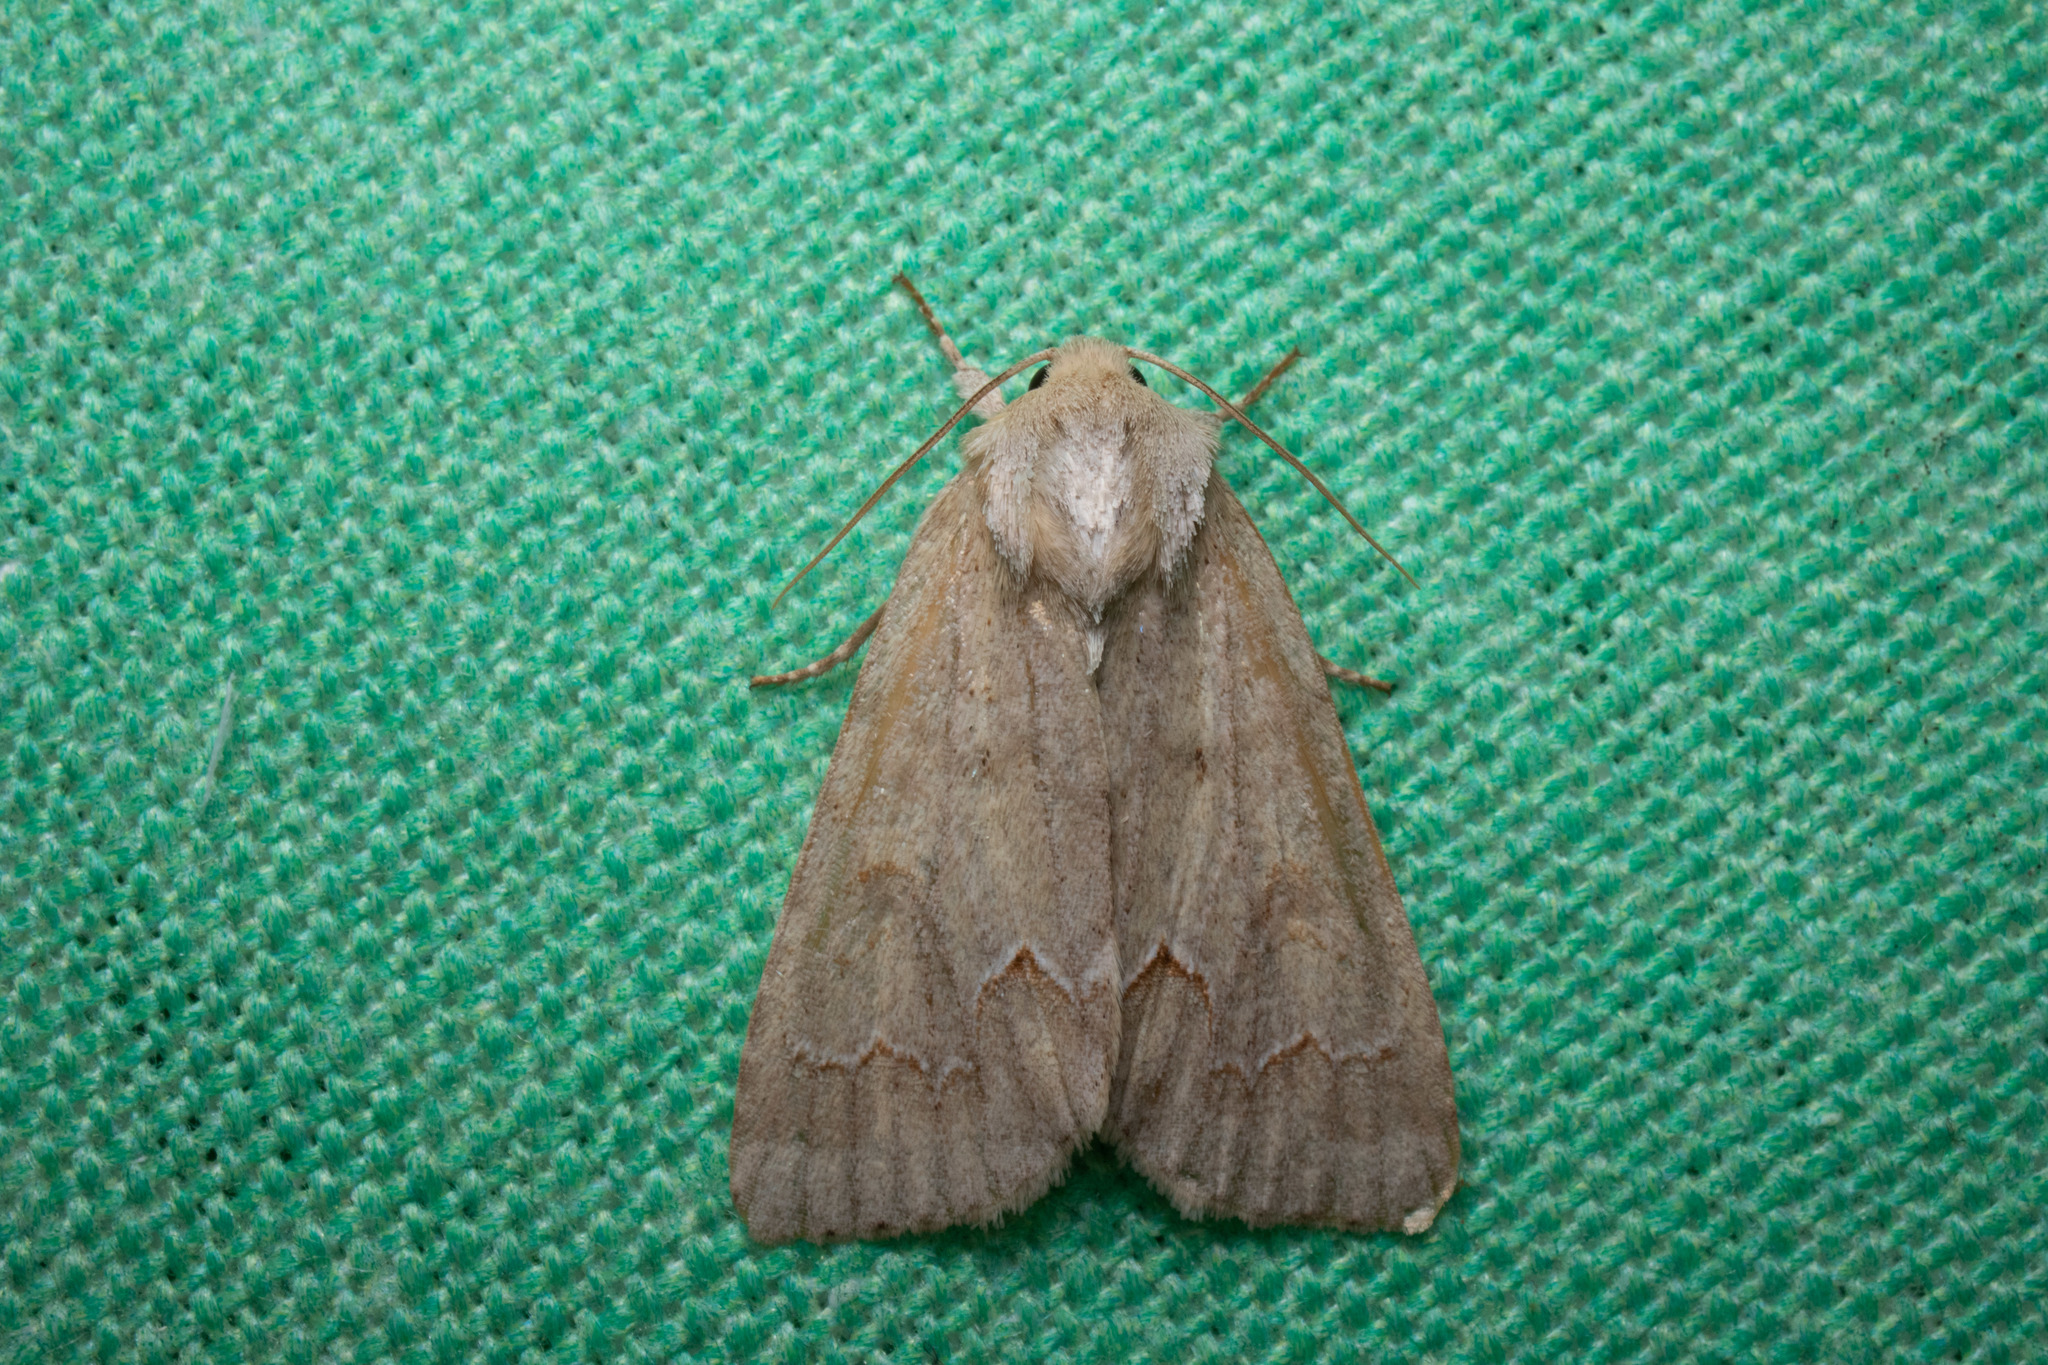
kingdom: Animalia
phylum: Arthropoda
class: Insecta
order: Lepidoptera
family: Noctuidae
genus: Acronicta
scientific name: Acronicta betulae
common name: Birch dagger moth
